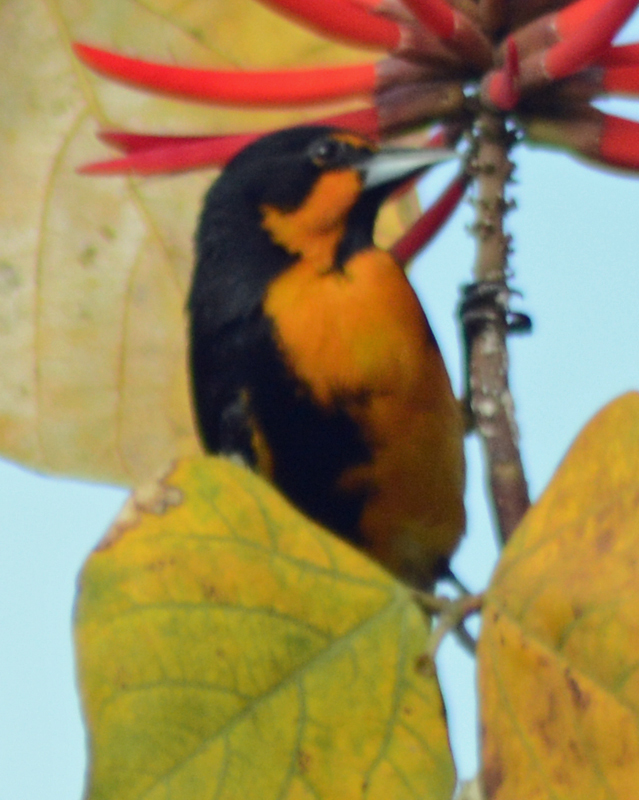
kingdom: Animalia
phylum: Chordata
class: Aves
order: Passeriformes
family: Icteridae
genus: Icterus
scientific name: Icterus abeillei
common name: Black-backed oriole
